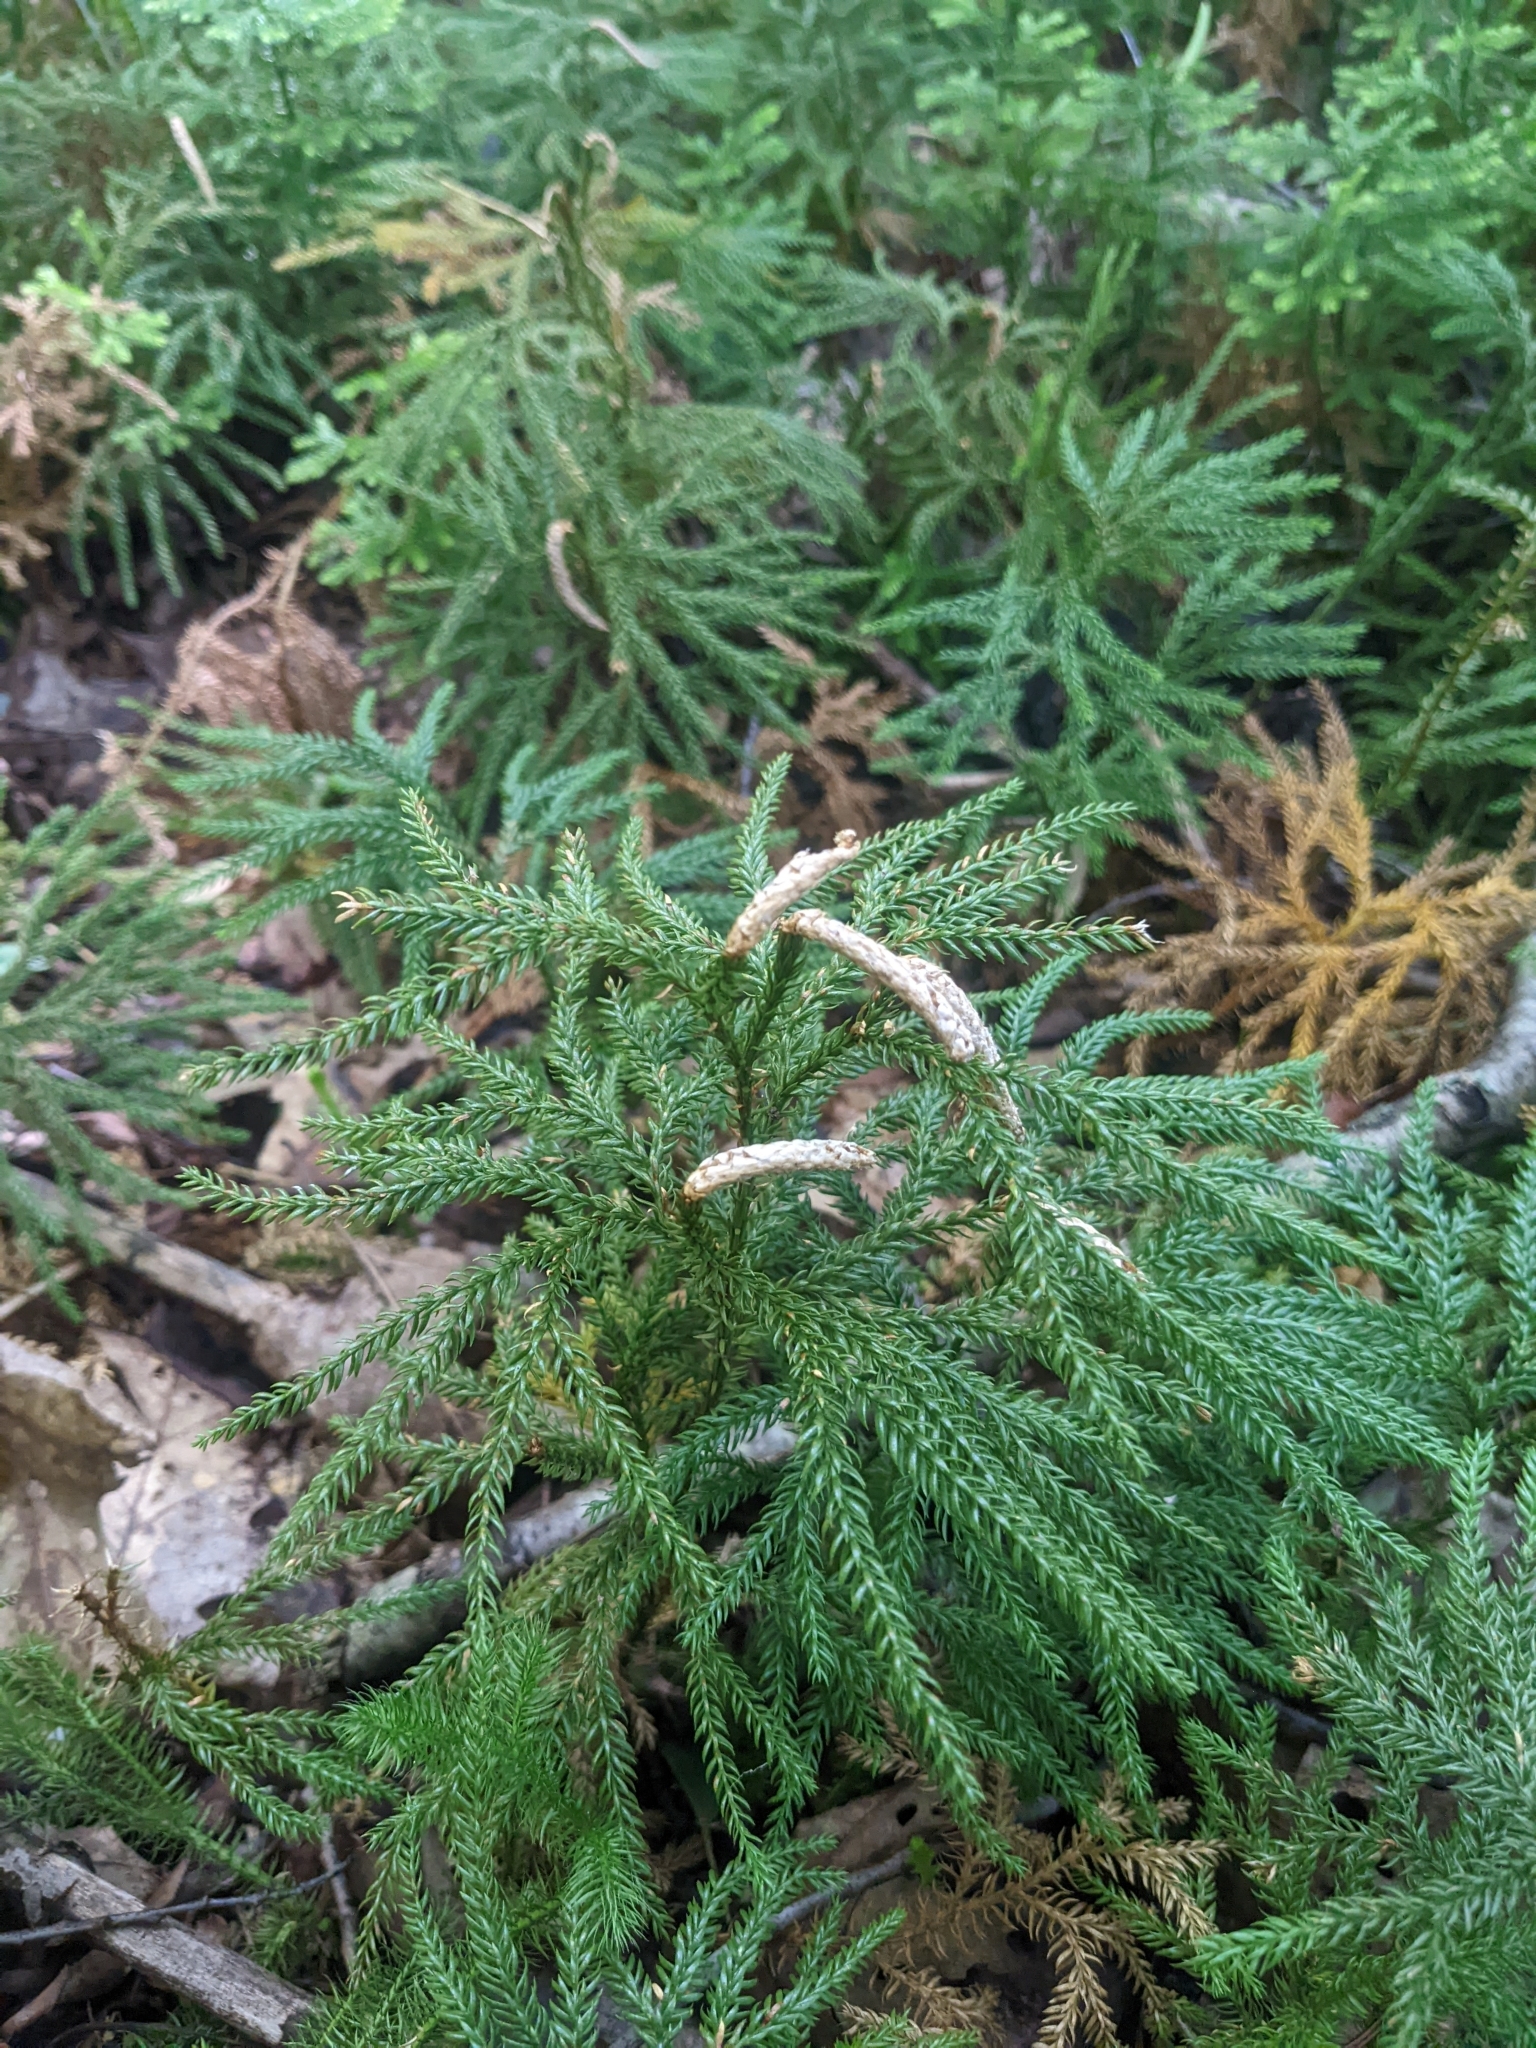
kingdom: Plantae
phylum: Tracheophyta
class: Lycopodiopsida
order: Lycopodiales
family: Lycopodiaceae
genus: Dendrolycopodium
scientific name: Dendrolycopodium obscurum
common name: Common ground-pine
